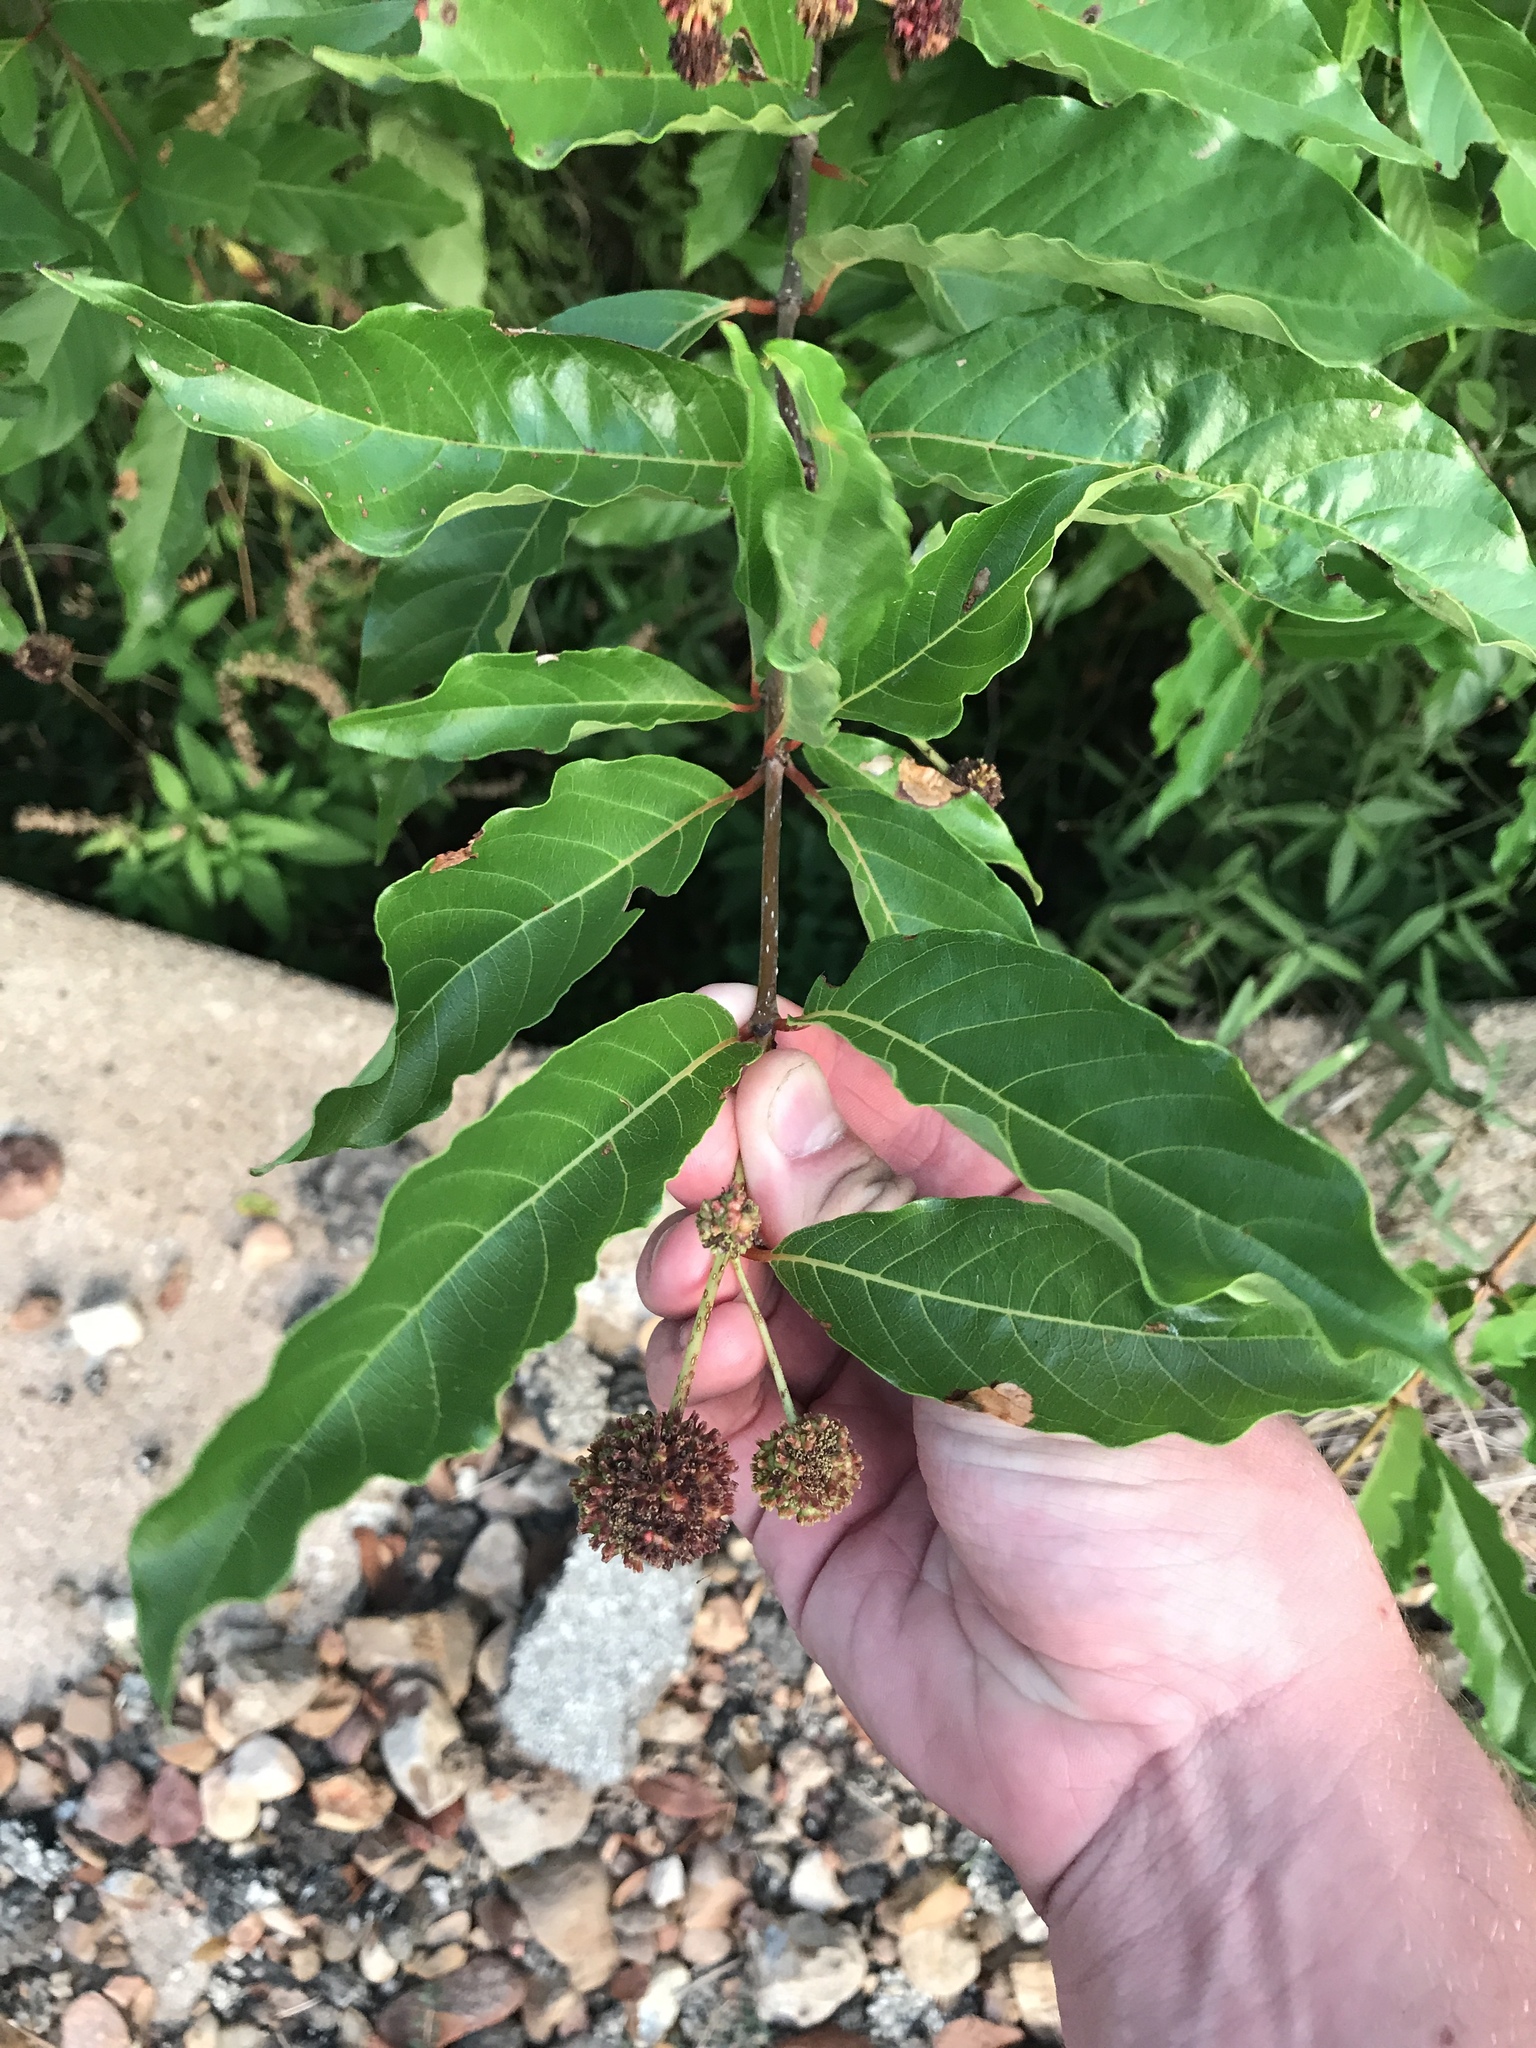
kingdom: Plantae
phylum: Tracheophyta
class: Magnoliopsida
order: Gentianales
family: Rubiaceae
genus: Cephalanthus
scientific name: Cephalanthus occidentalis
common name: Button-willow
